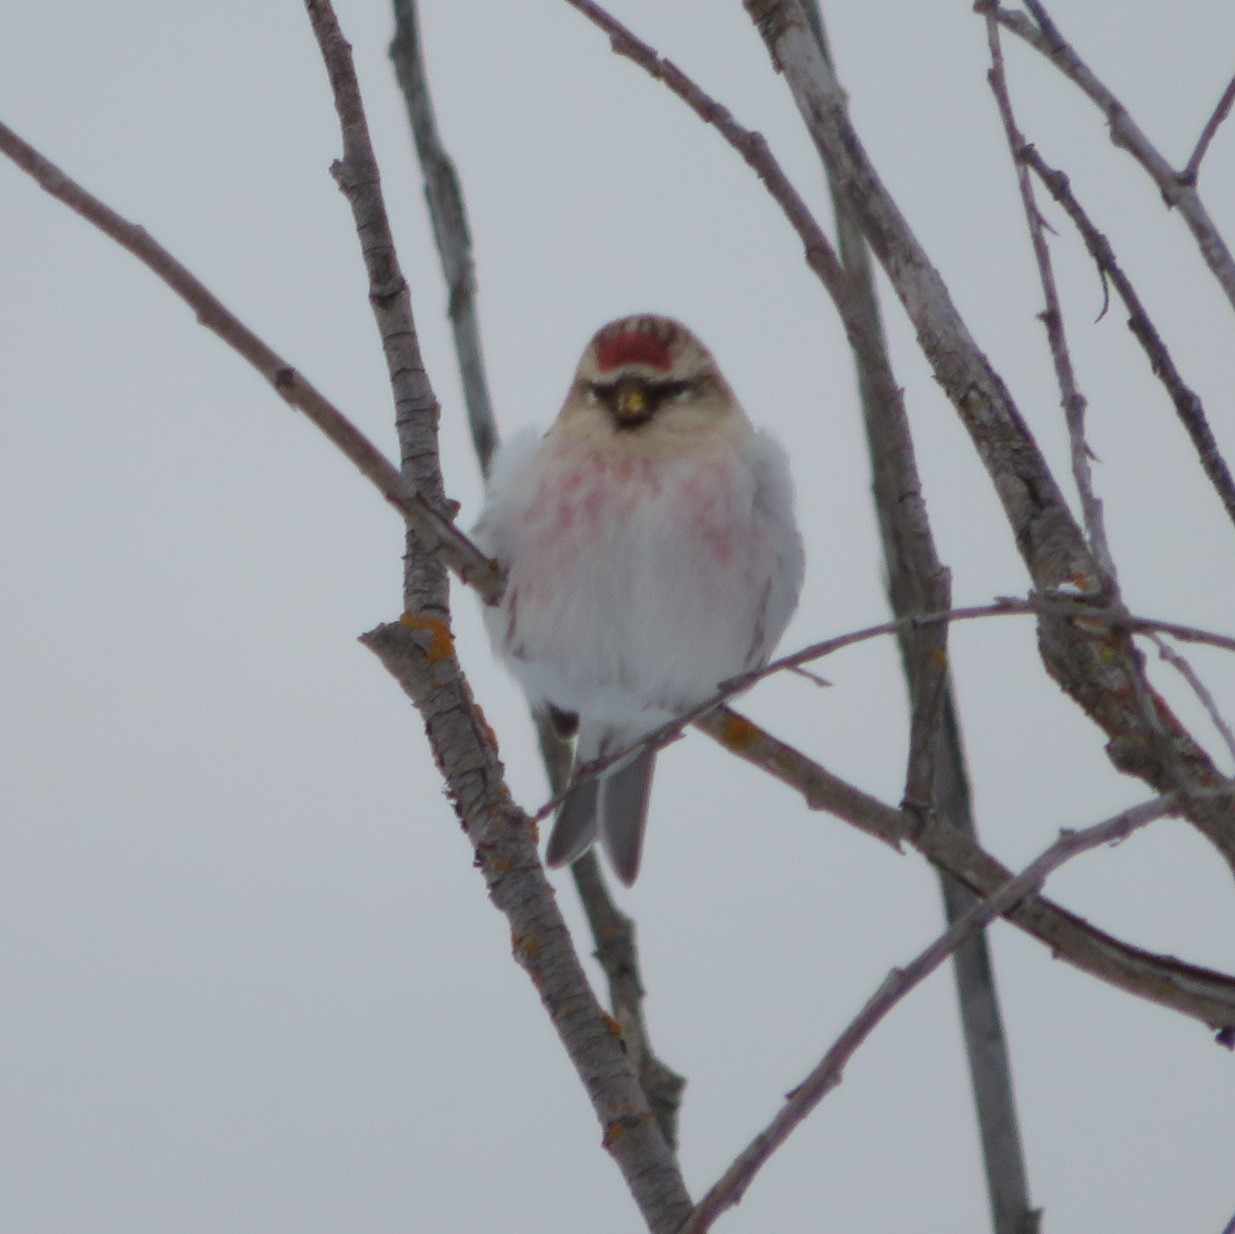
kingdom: Animalia
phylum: Chordata
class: Aves
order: Passeriformes
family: Fringillidae
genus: Acanthis
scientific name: Acanthis hornemanni
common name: Arctic redpoll
